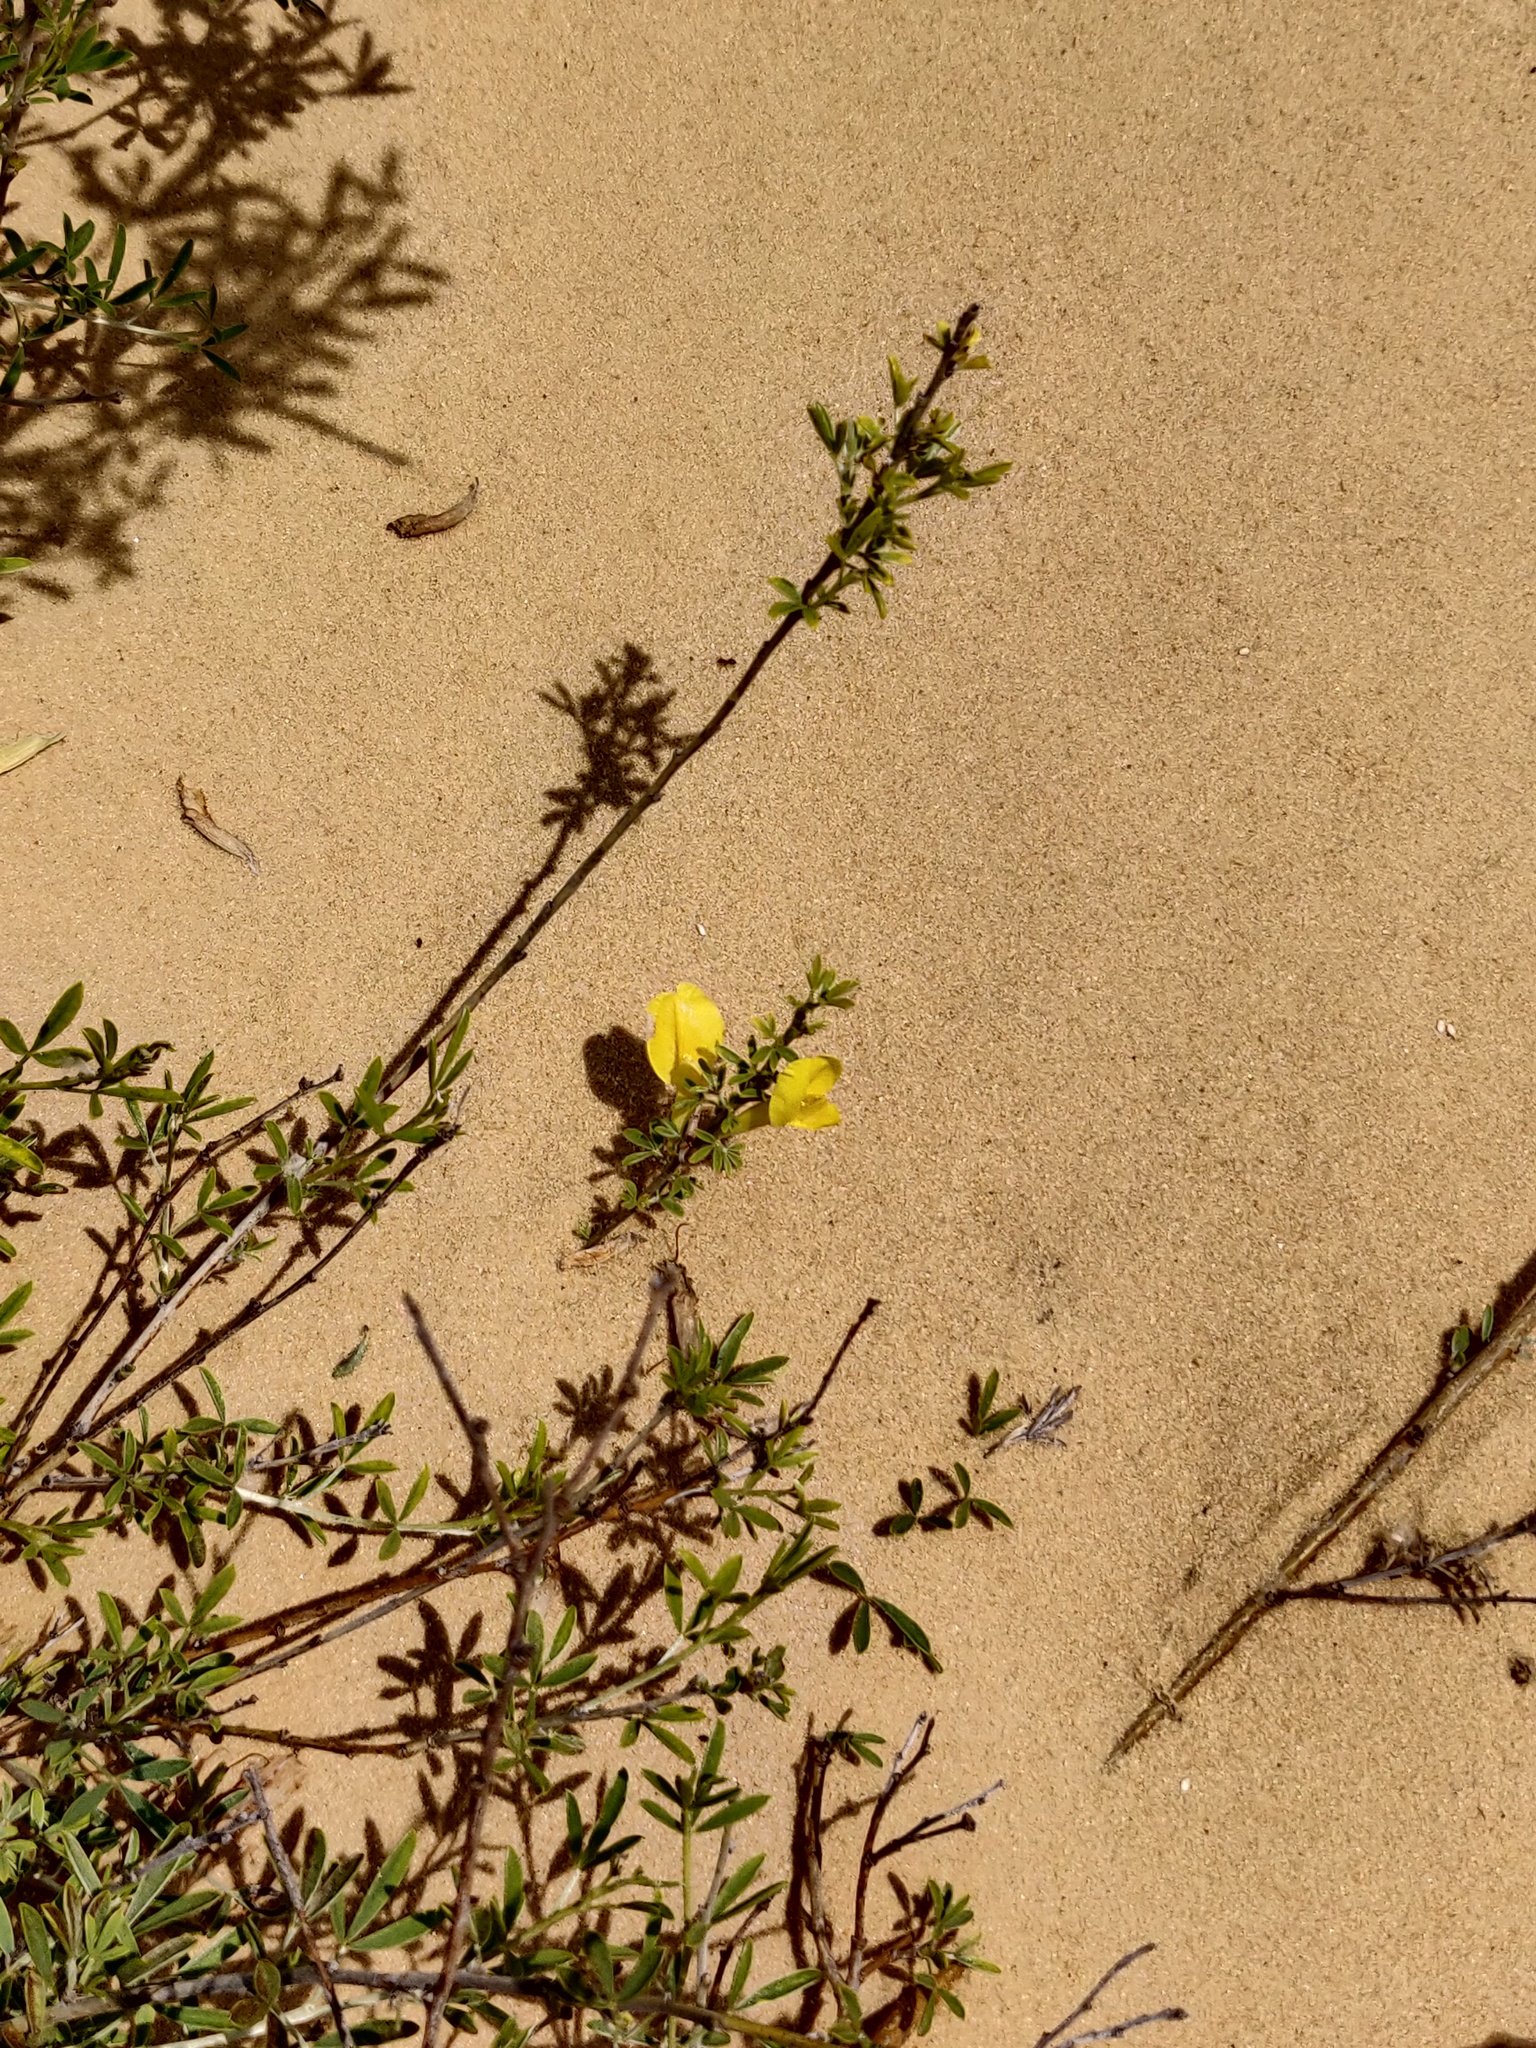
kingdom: Plantae
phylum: Tracheophyta
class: Magnoliopsida
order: Fabales
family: Fabaceae
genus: Chamaecytisus
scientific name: Chamaecytisus ruthenicus
